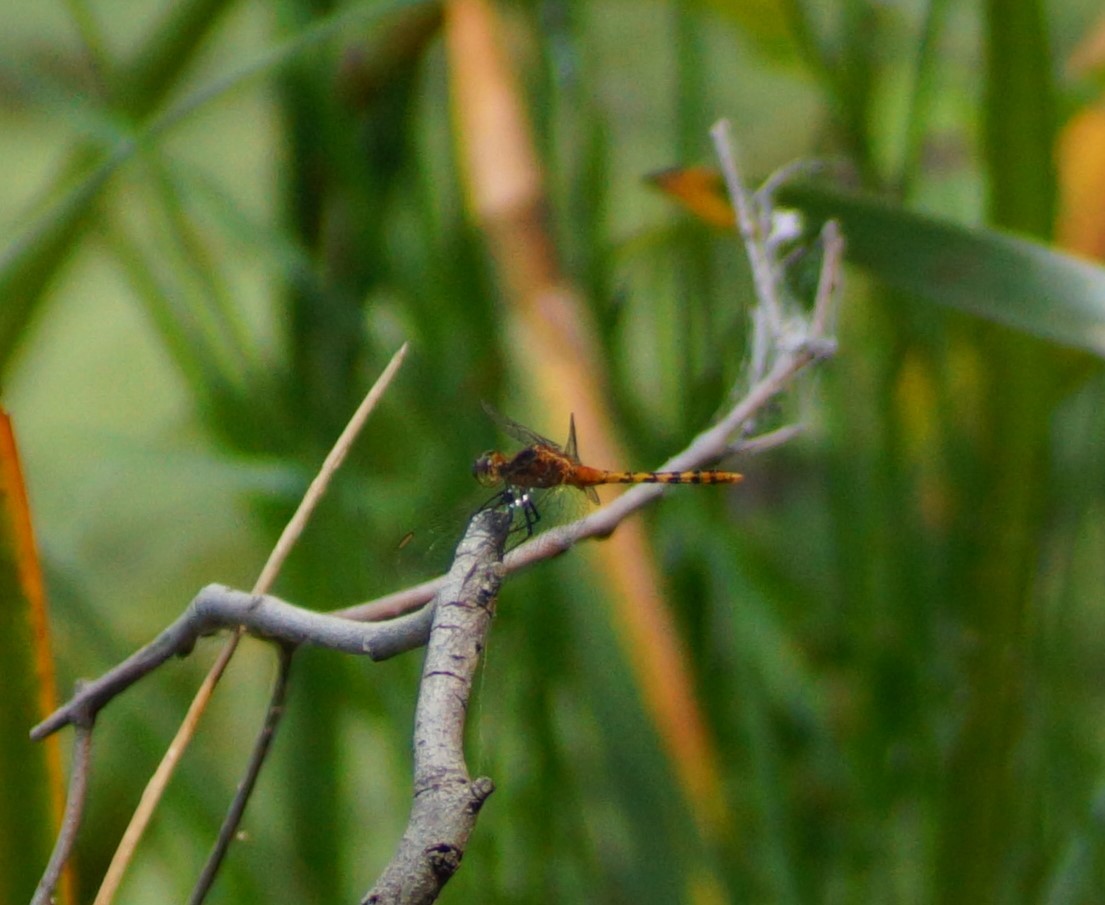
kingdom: Animalia
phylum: Arthropoda
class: Insecta
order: Odonata
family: Libellulidae
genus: Diplacodes
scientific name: Diplacodes melanopsis
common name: Black-faced percher
